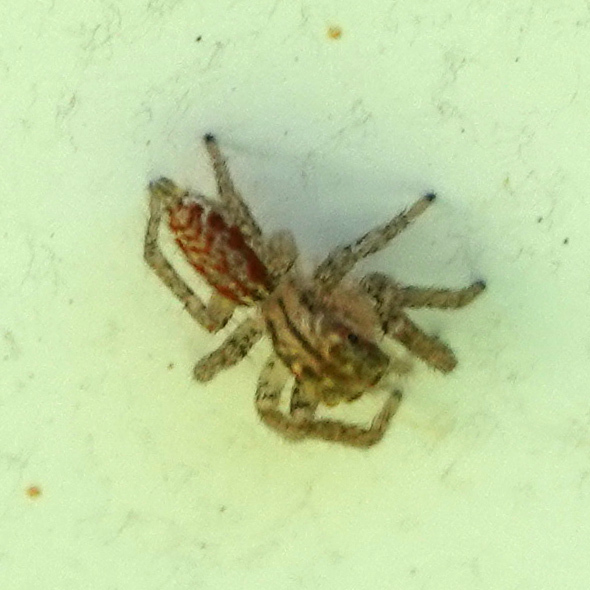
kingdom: Animalia
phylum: Arthropoda
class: Arachnida
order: Araneae
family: Salticidae
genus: Maevia
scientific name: Maevia inclemens
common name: Dimorphic jumper
